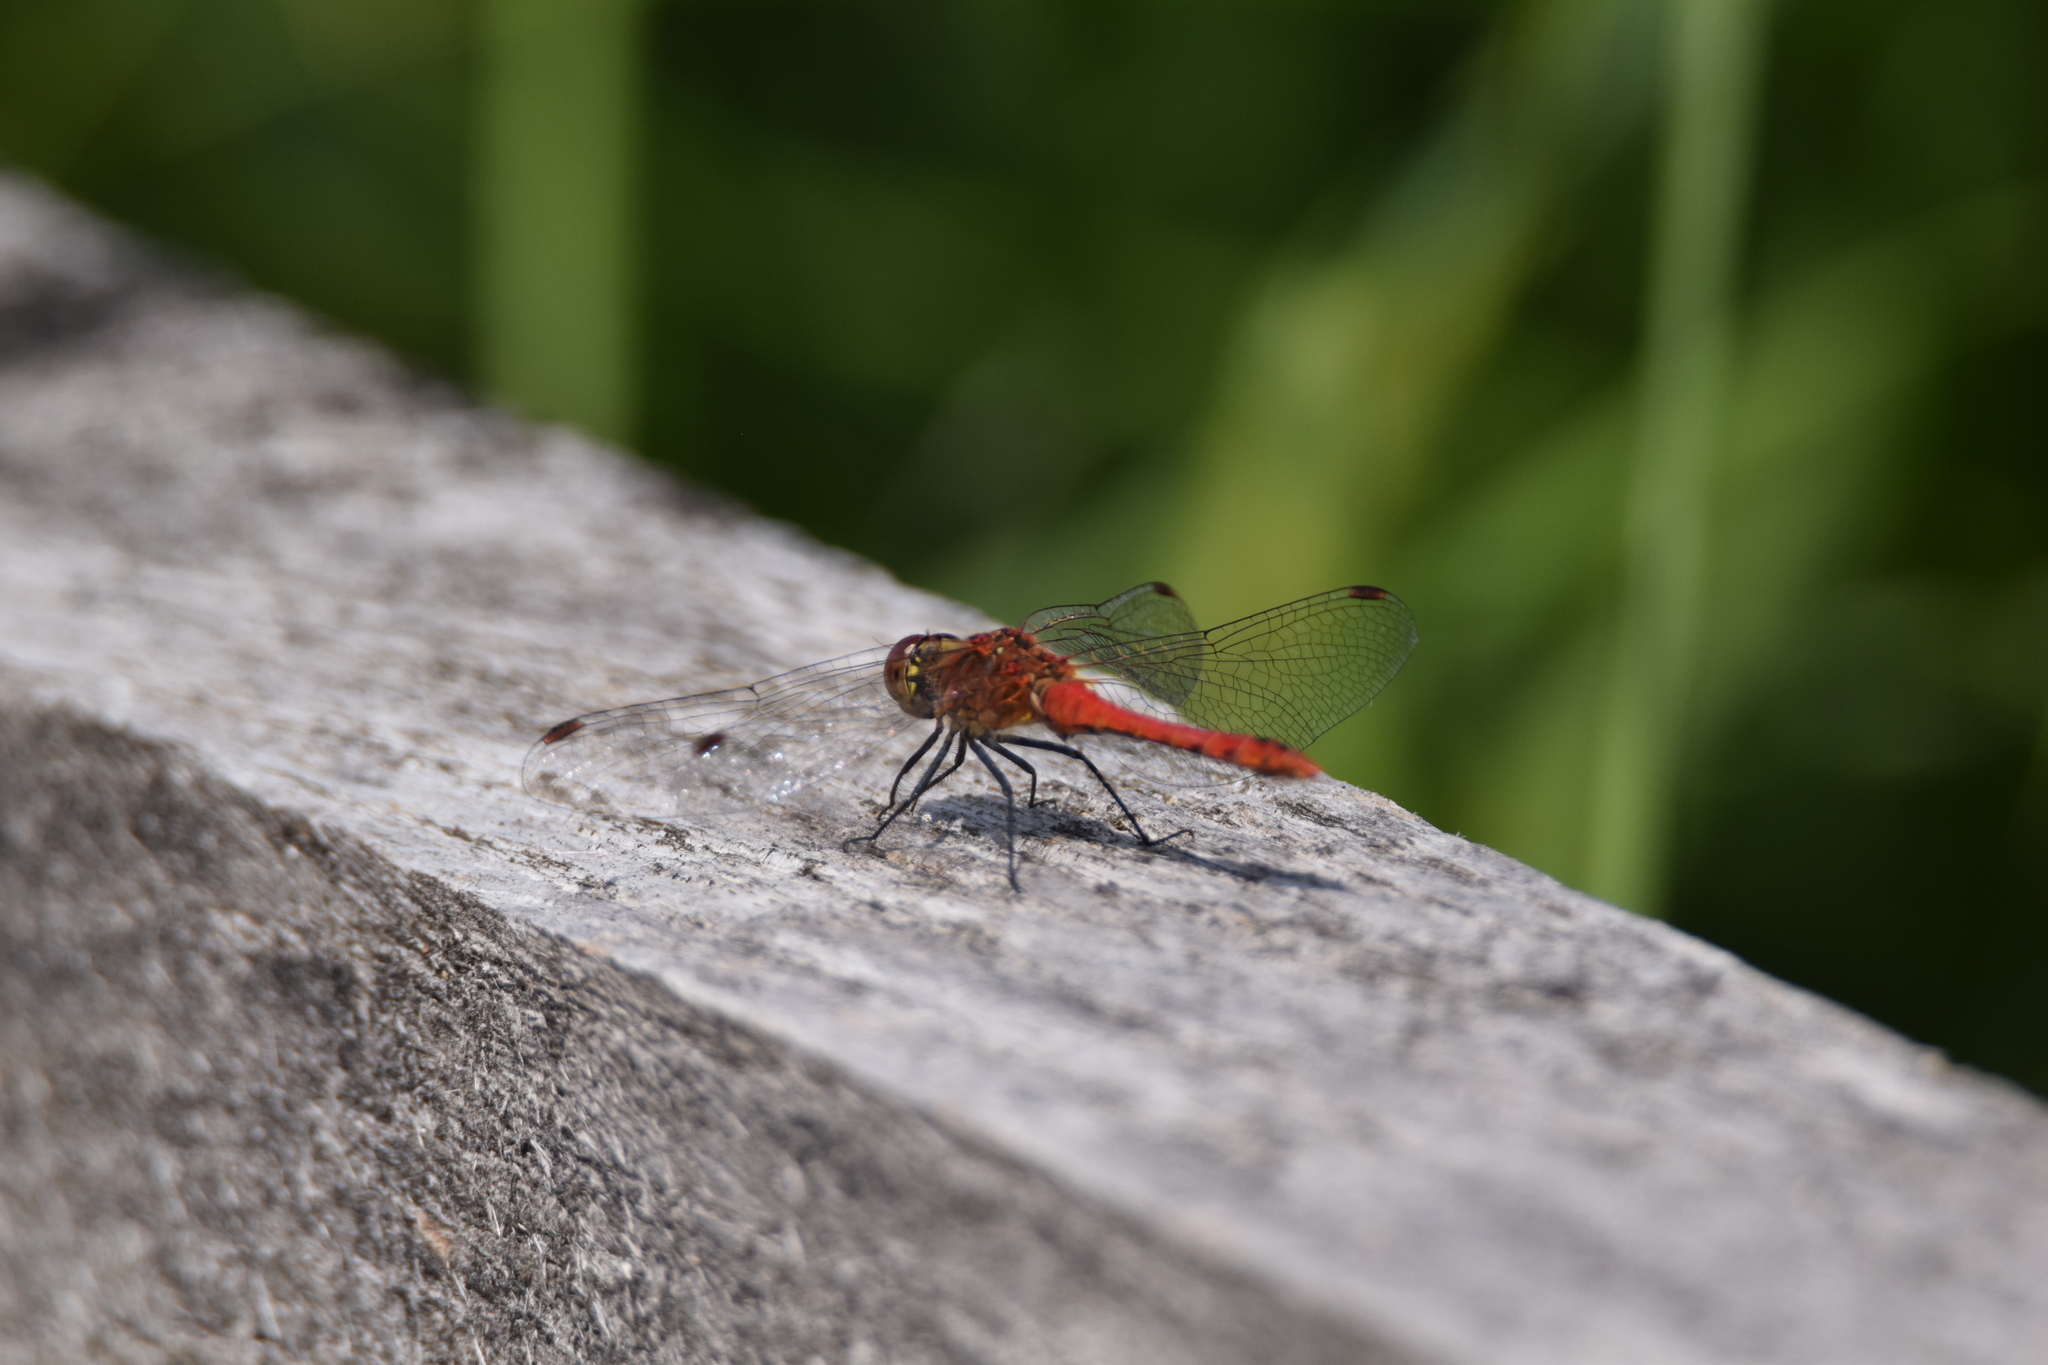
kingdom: Animalia
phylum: Arthropoda
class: Insecta
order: Odonata
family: Libellulidae
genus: Sympetrum
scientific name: Sympetrum sanguineum
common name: Ruddy darter
